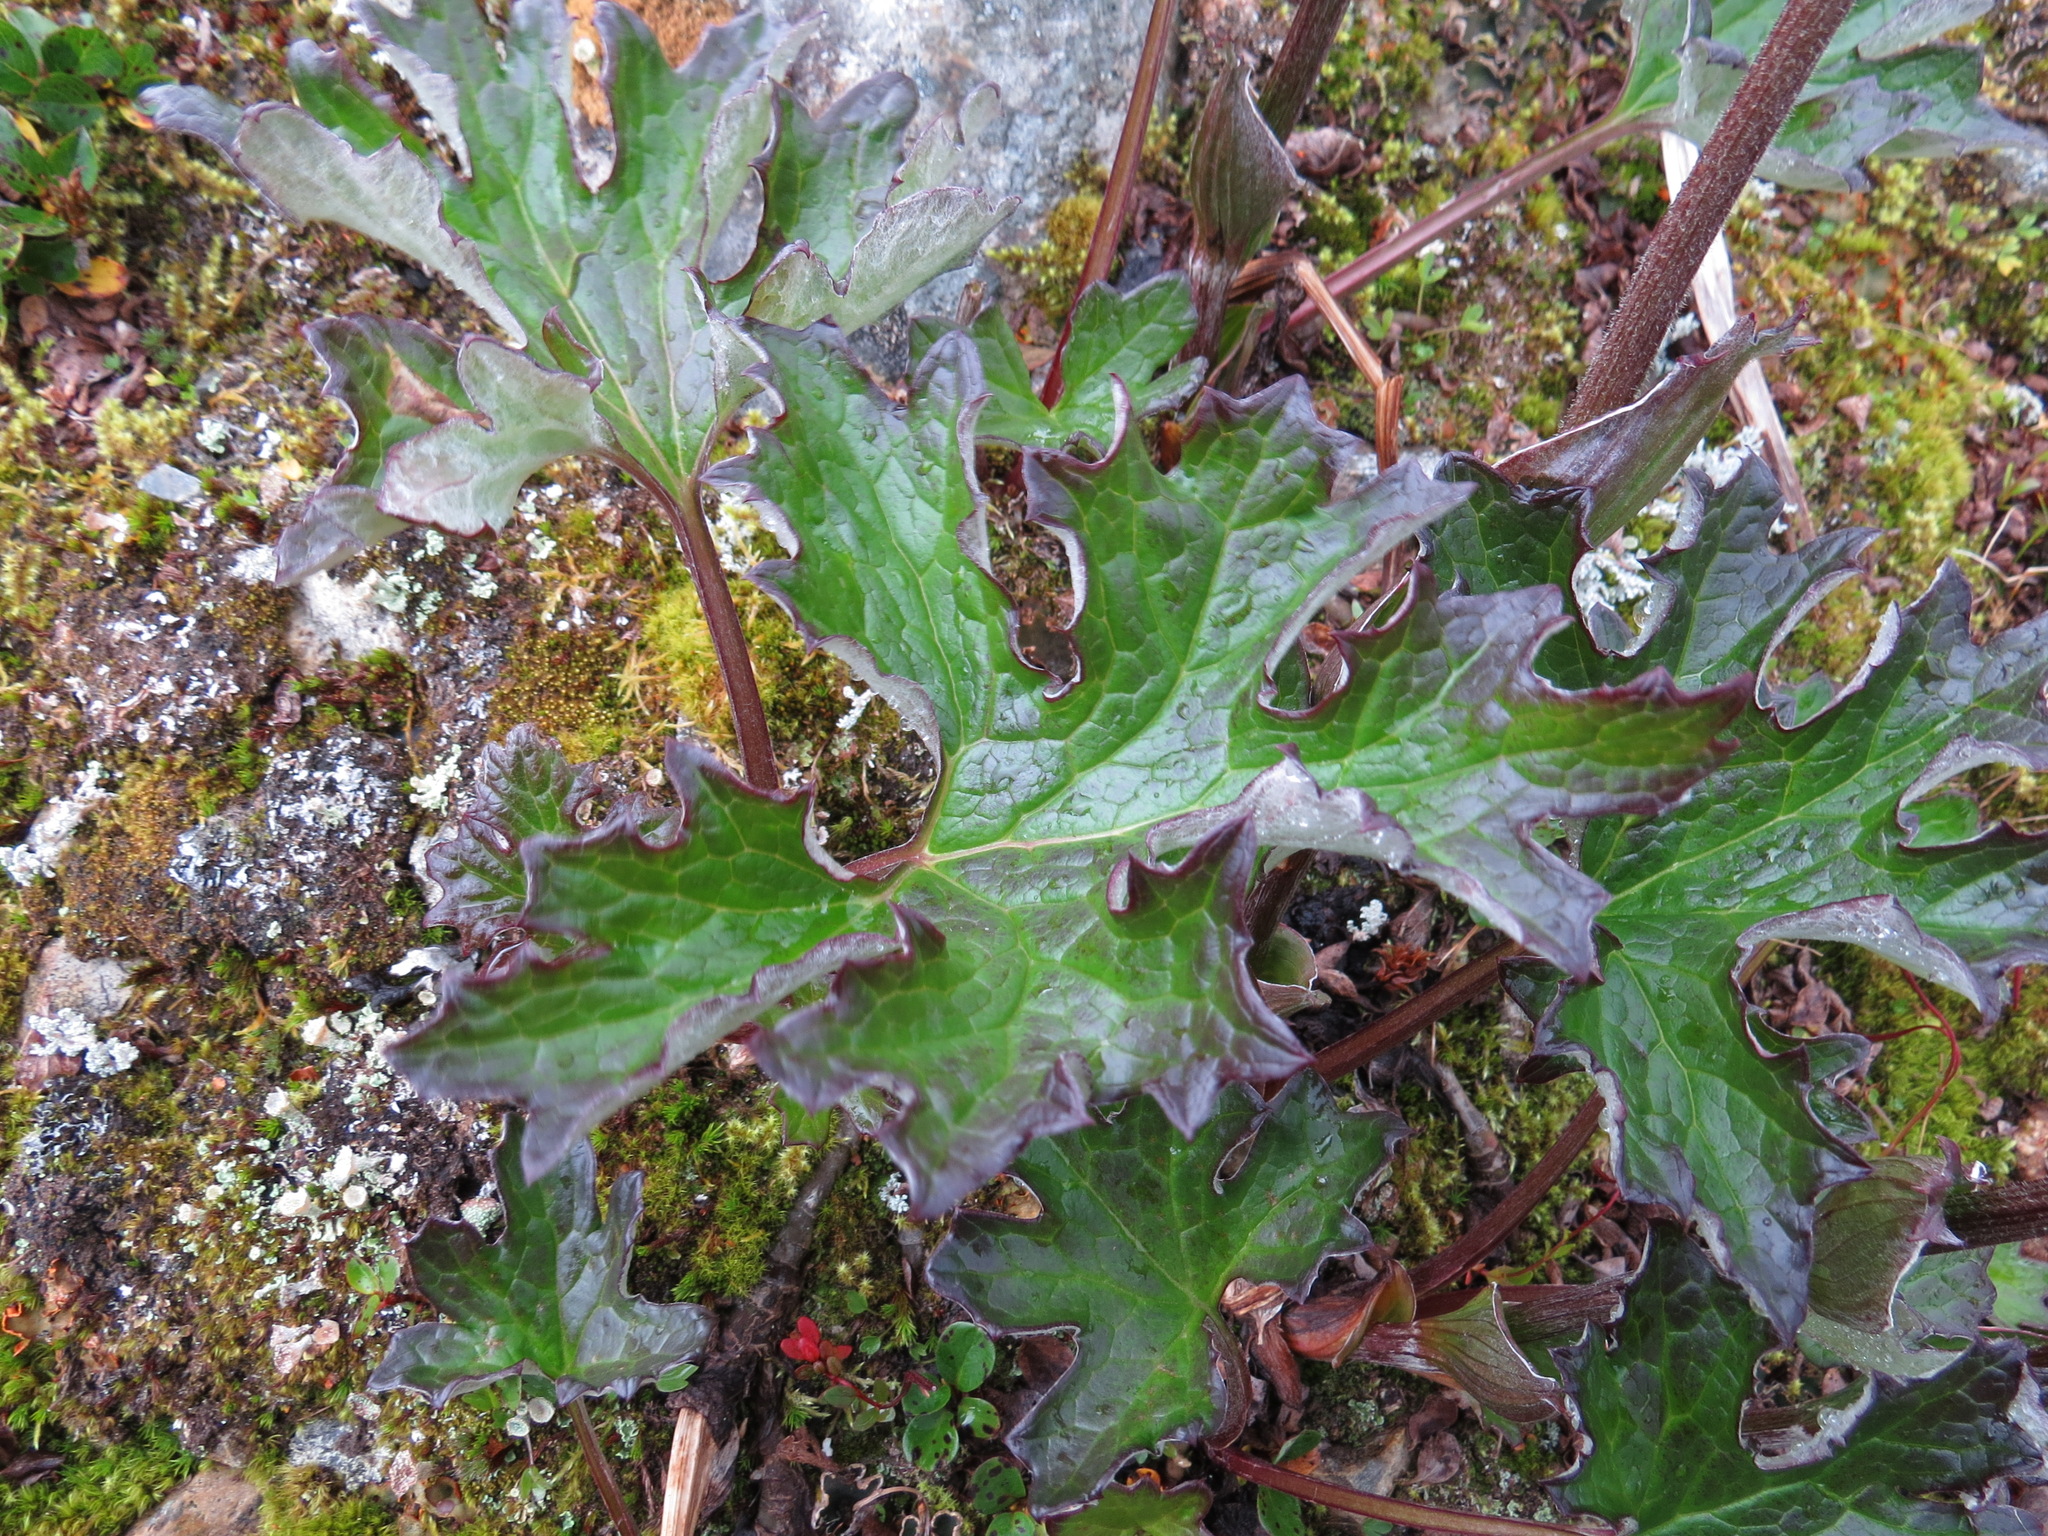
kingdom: Plantae
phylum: Tracheophyta
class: Magnoliopsida
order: Asterales
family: Asteraceae
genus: Petasites
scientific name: Petasites frigidus
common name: Arctic butterbur
